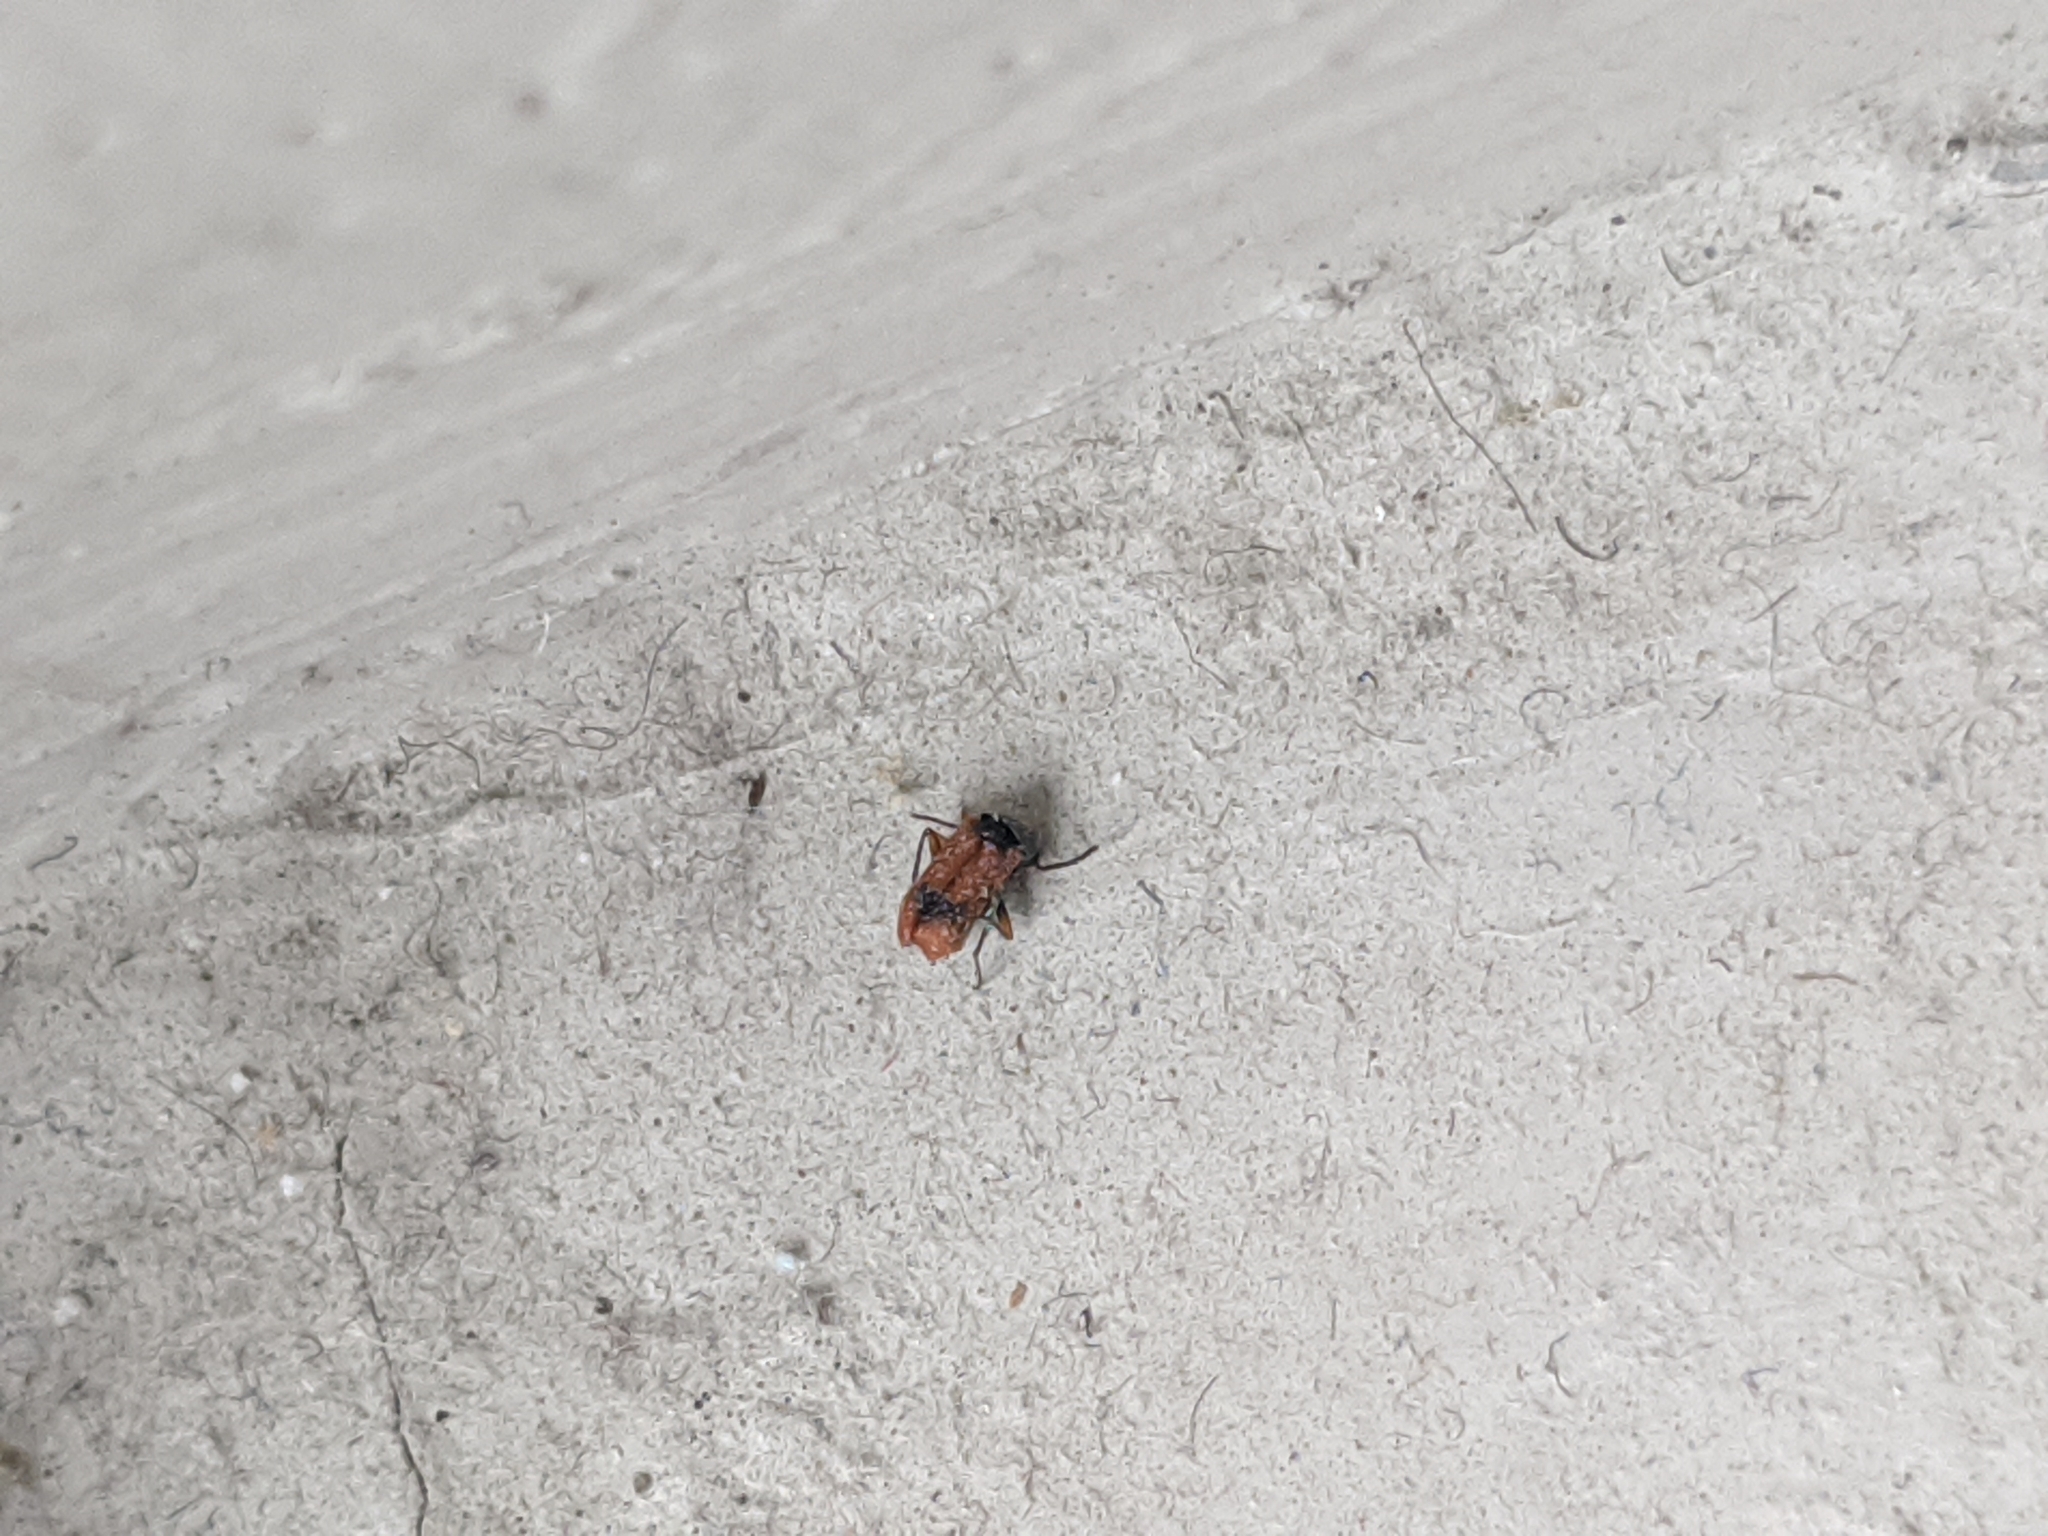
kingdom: Animalia
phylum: Arthropoda
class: Insecta
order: Coleoptera
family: Melyridae
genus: Anthocomus
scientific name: Anthocomus equestris
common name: Black-banded soft-winged flower beetle
